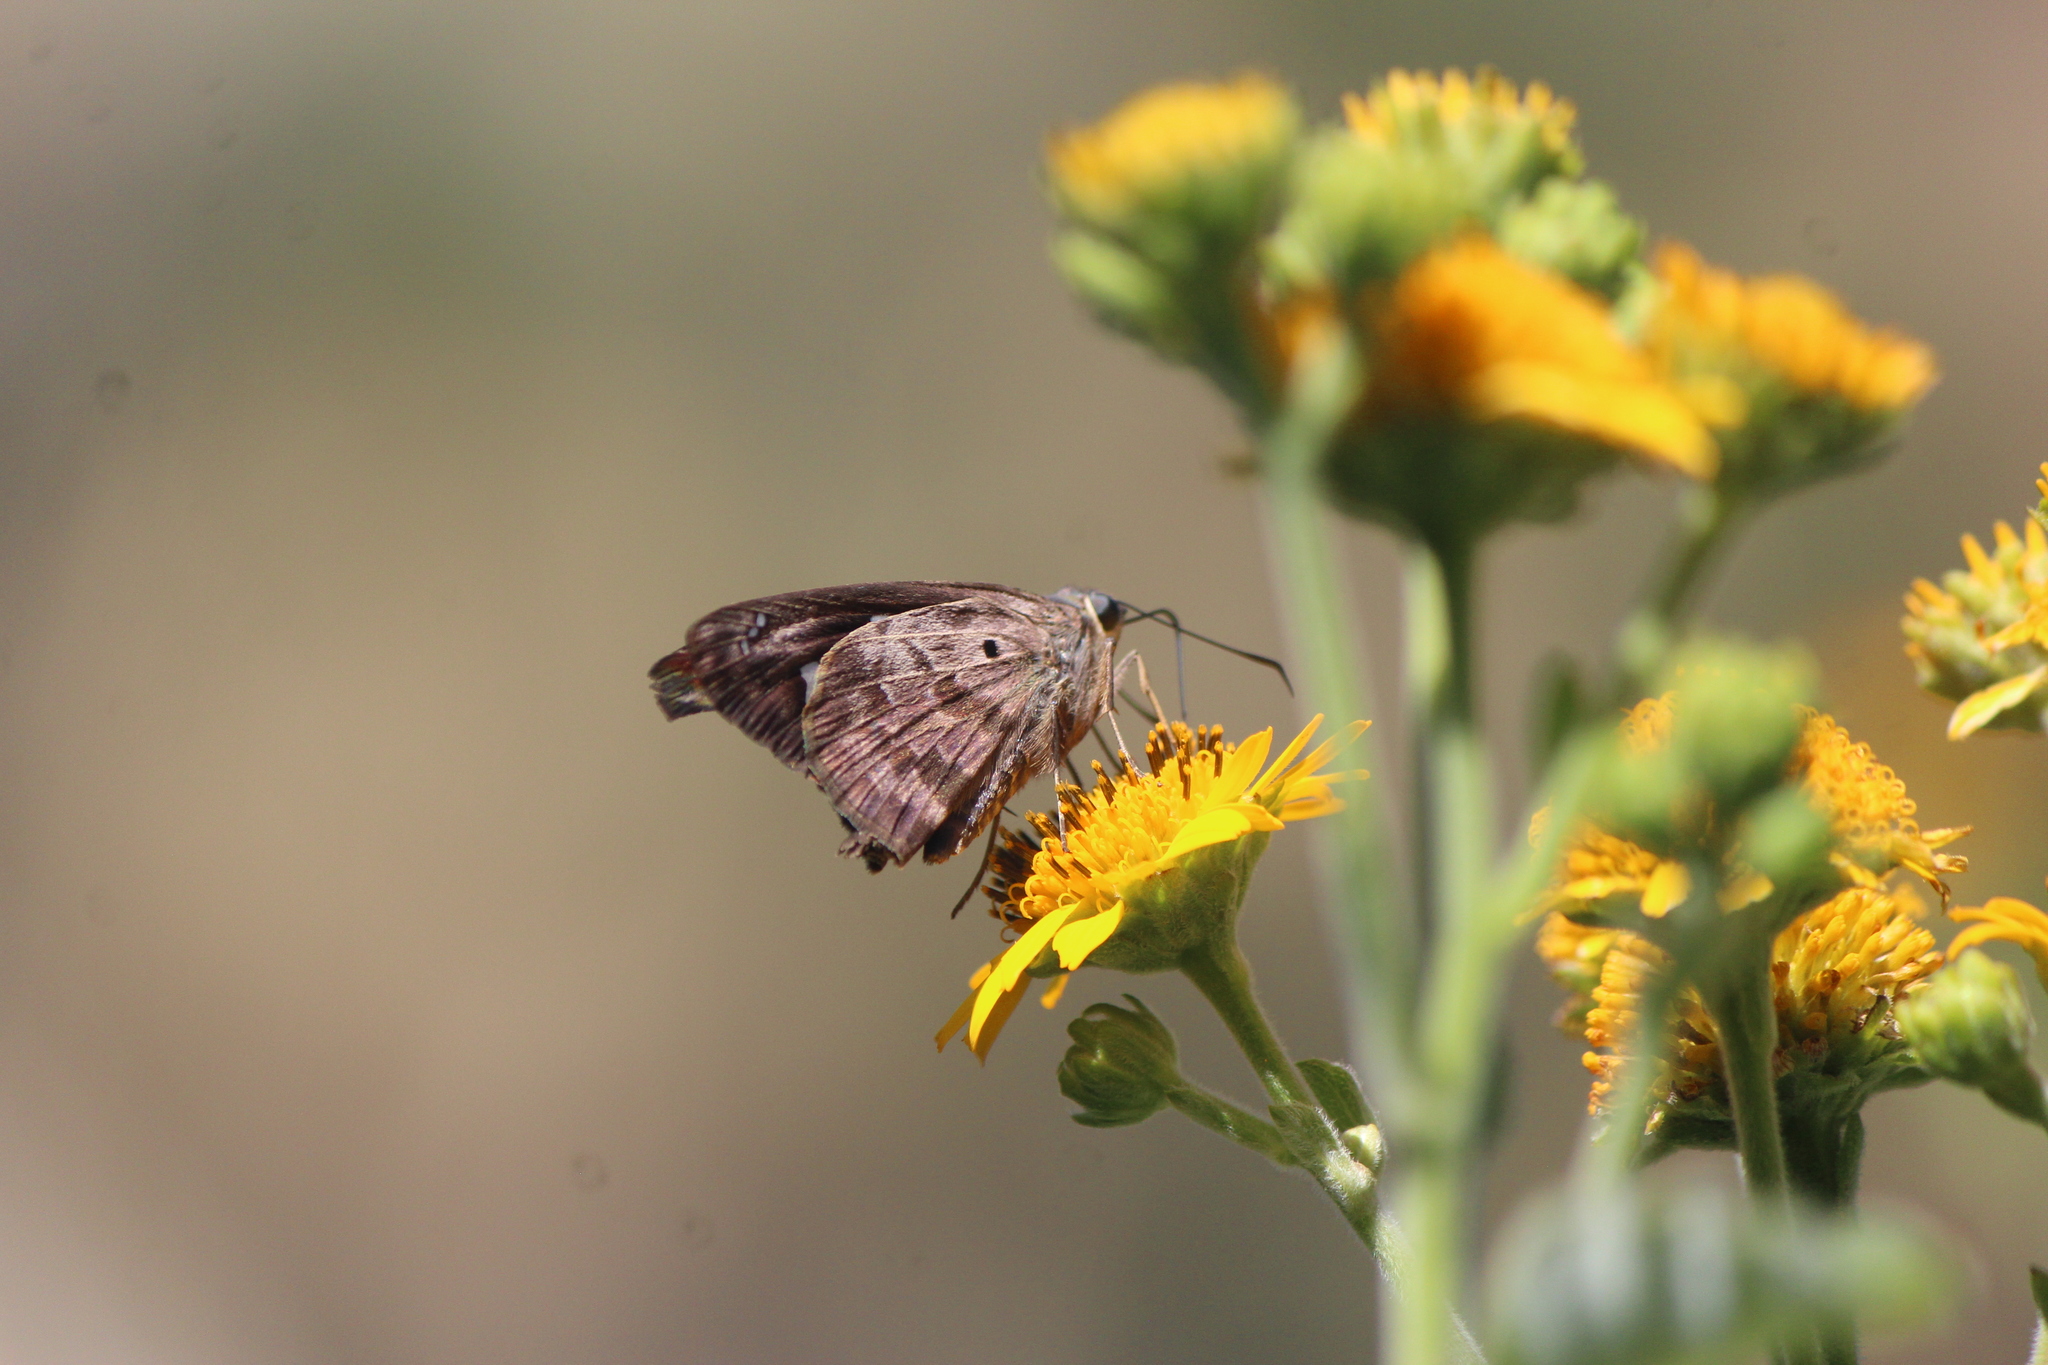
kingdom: Animalia
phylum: Arthropoda
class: Insecta
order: Lepidoptera
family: Hesperiidae
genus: Polygonus
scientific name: Polygonus leo
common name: Hammoch skipper
